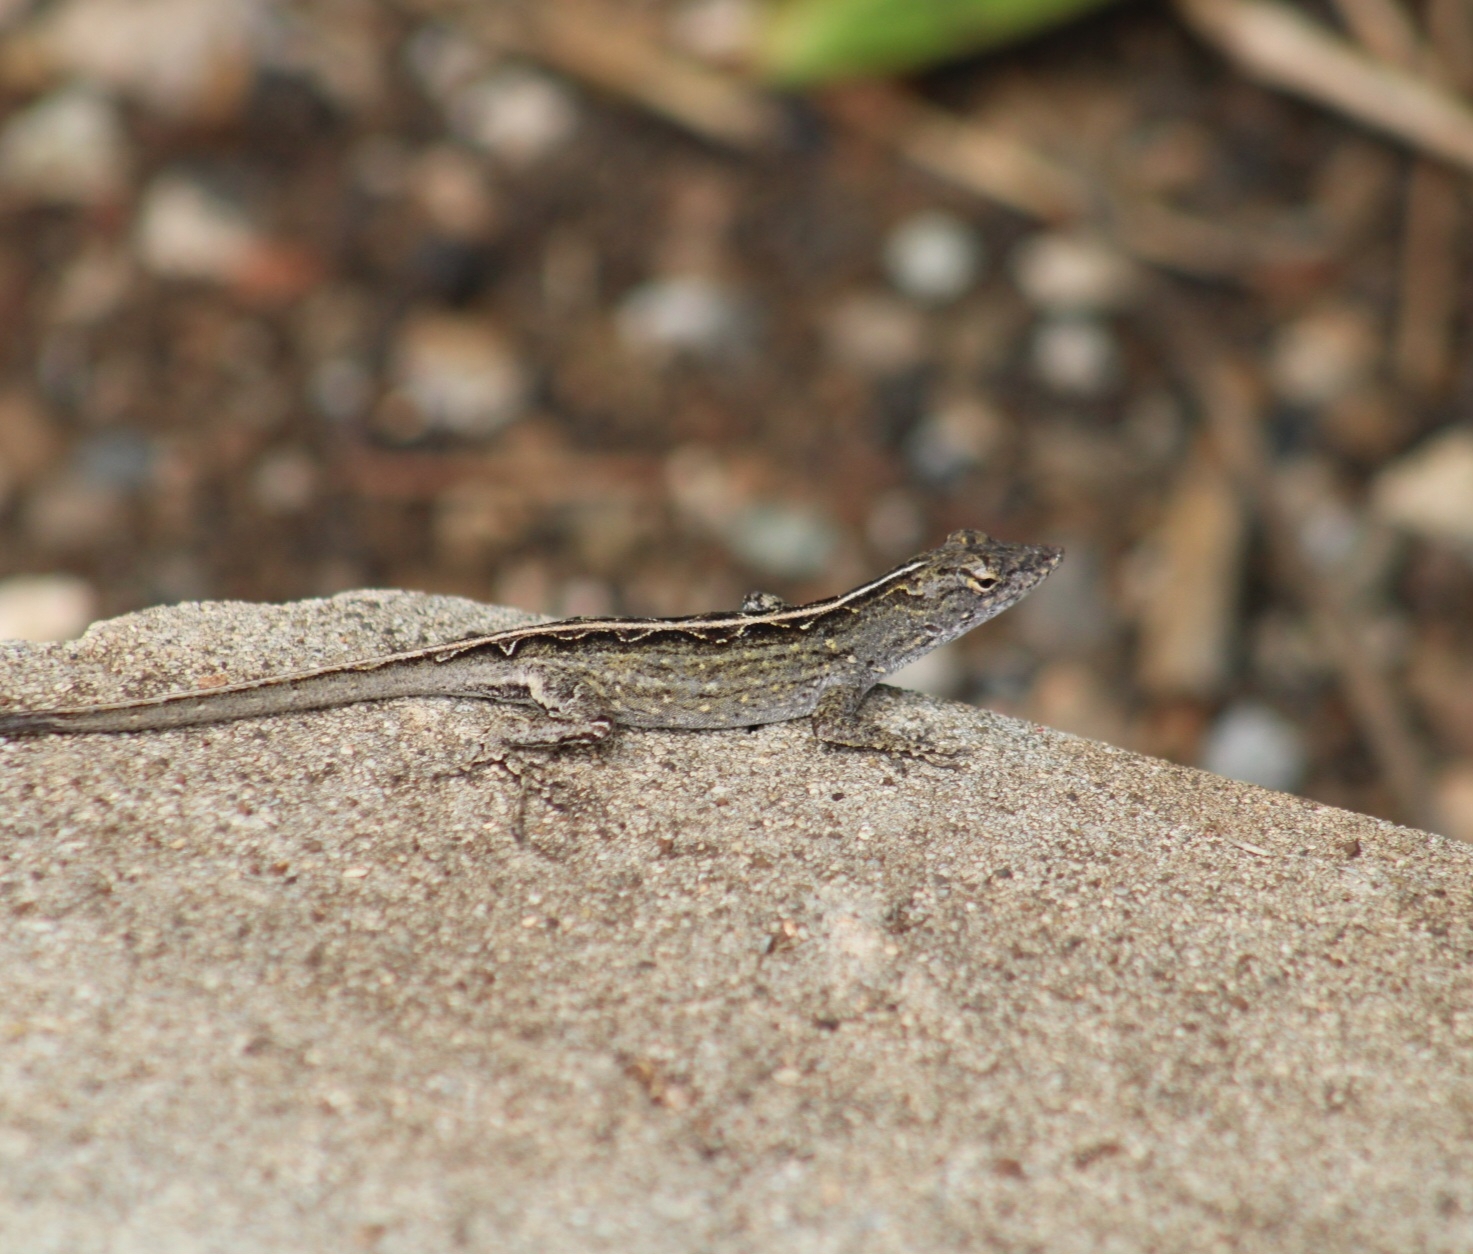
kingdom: Animalia
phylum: Chordata
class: Squamata
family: Dactyloidae
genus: Anolis
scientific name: Anolis sagrei
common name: Brown anole
